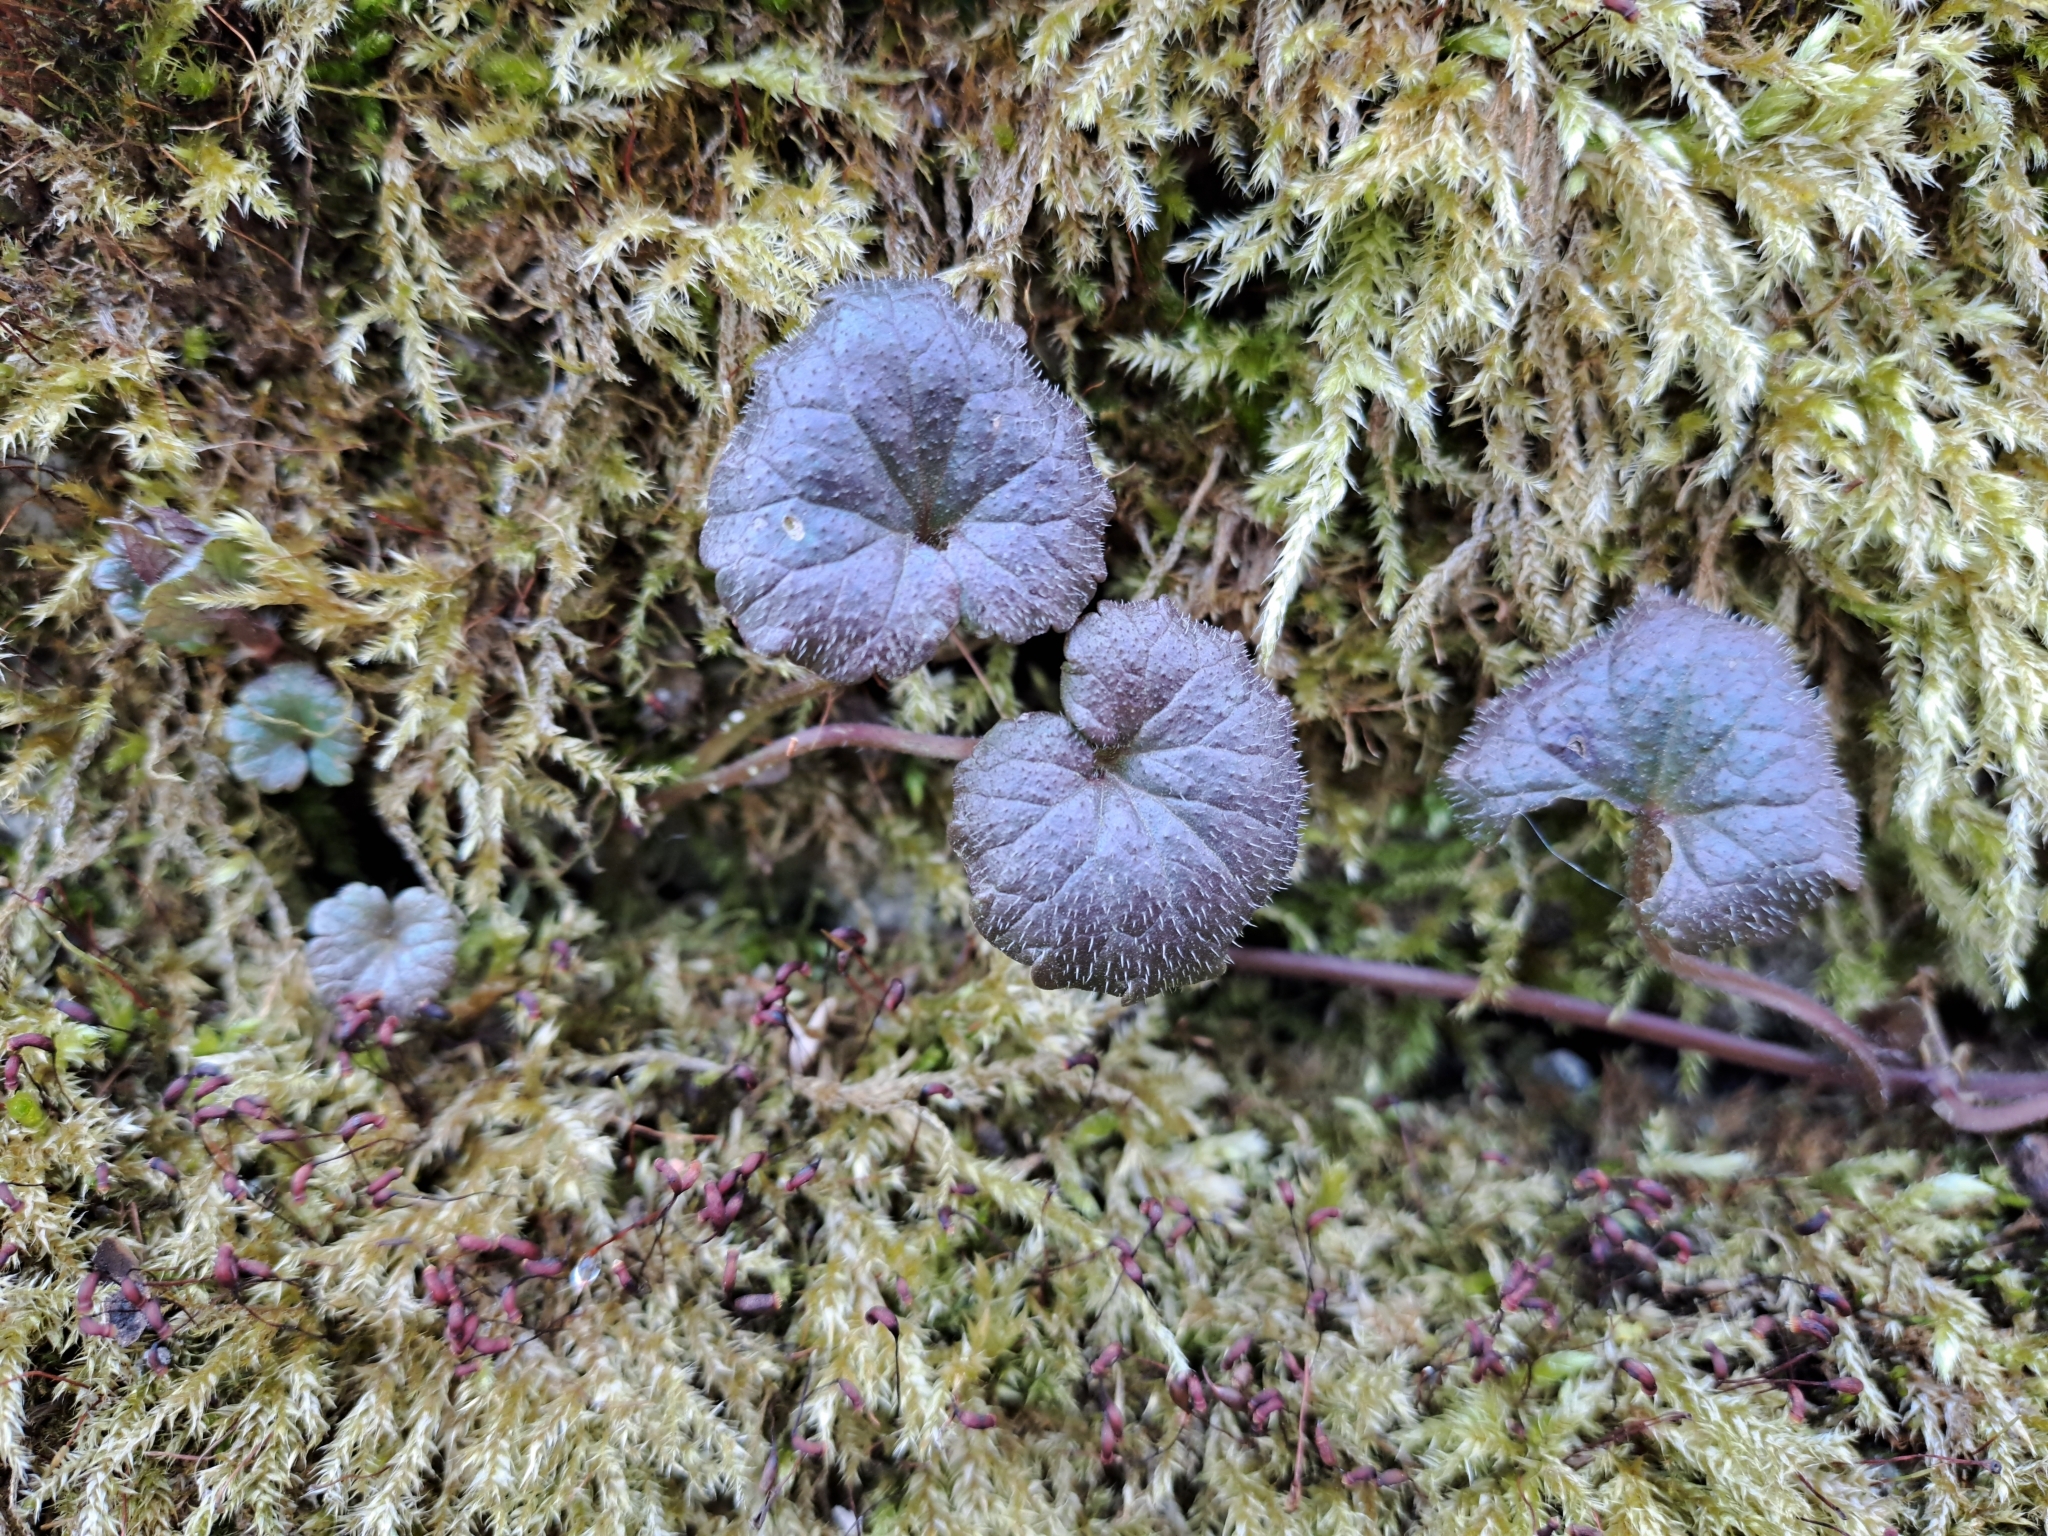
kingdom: Plantae
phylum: Tracheophyta
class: Magnoliopsida
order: Lamiales
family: Lamiaceae
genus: Glechoma
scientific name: Glechoma hederacea
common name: Ground ivy
